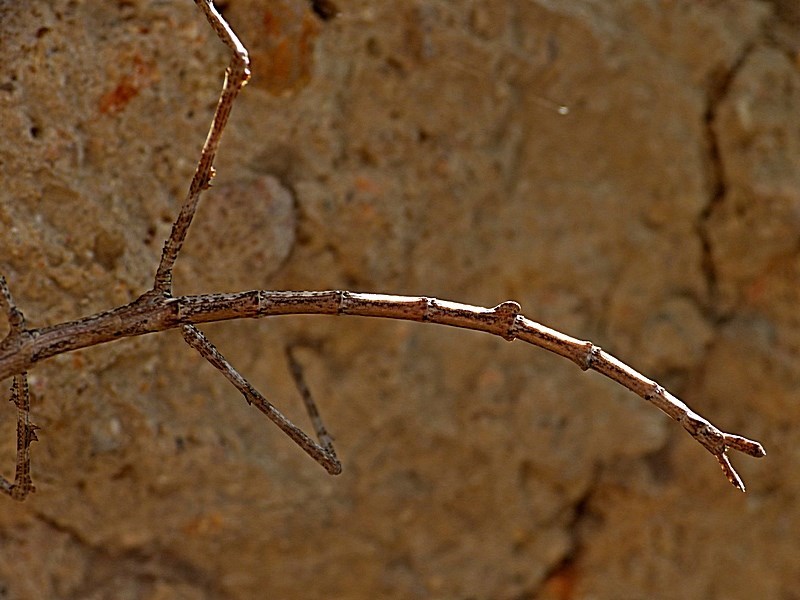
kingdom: Animalia
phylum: Arthropoda
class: Insecta
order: Phasmida
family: Phasmatidae
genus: Ctenomorpha
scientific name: Ctenomorpha marginipennis
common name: Margined-winged stick-insect
